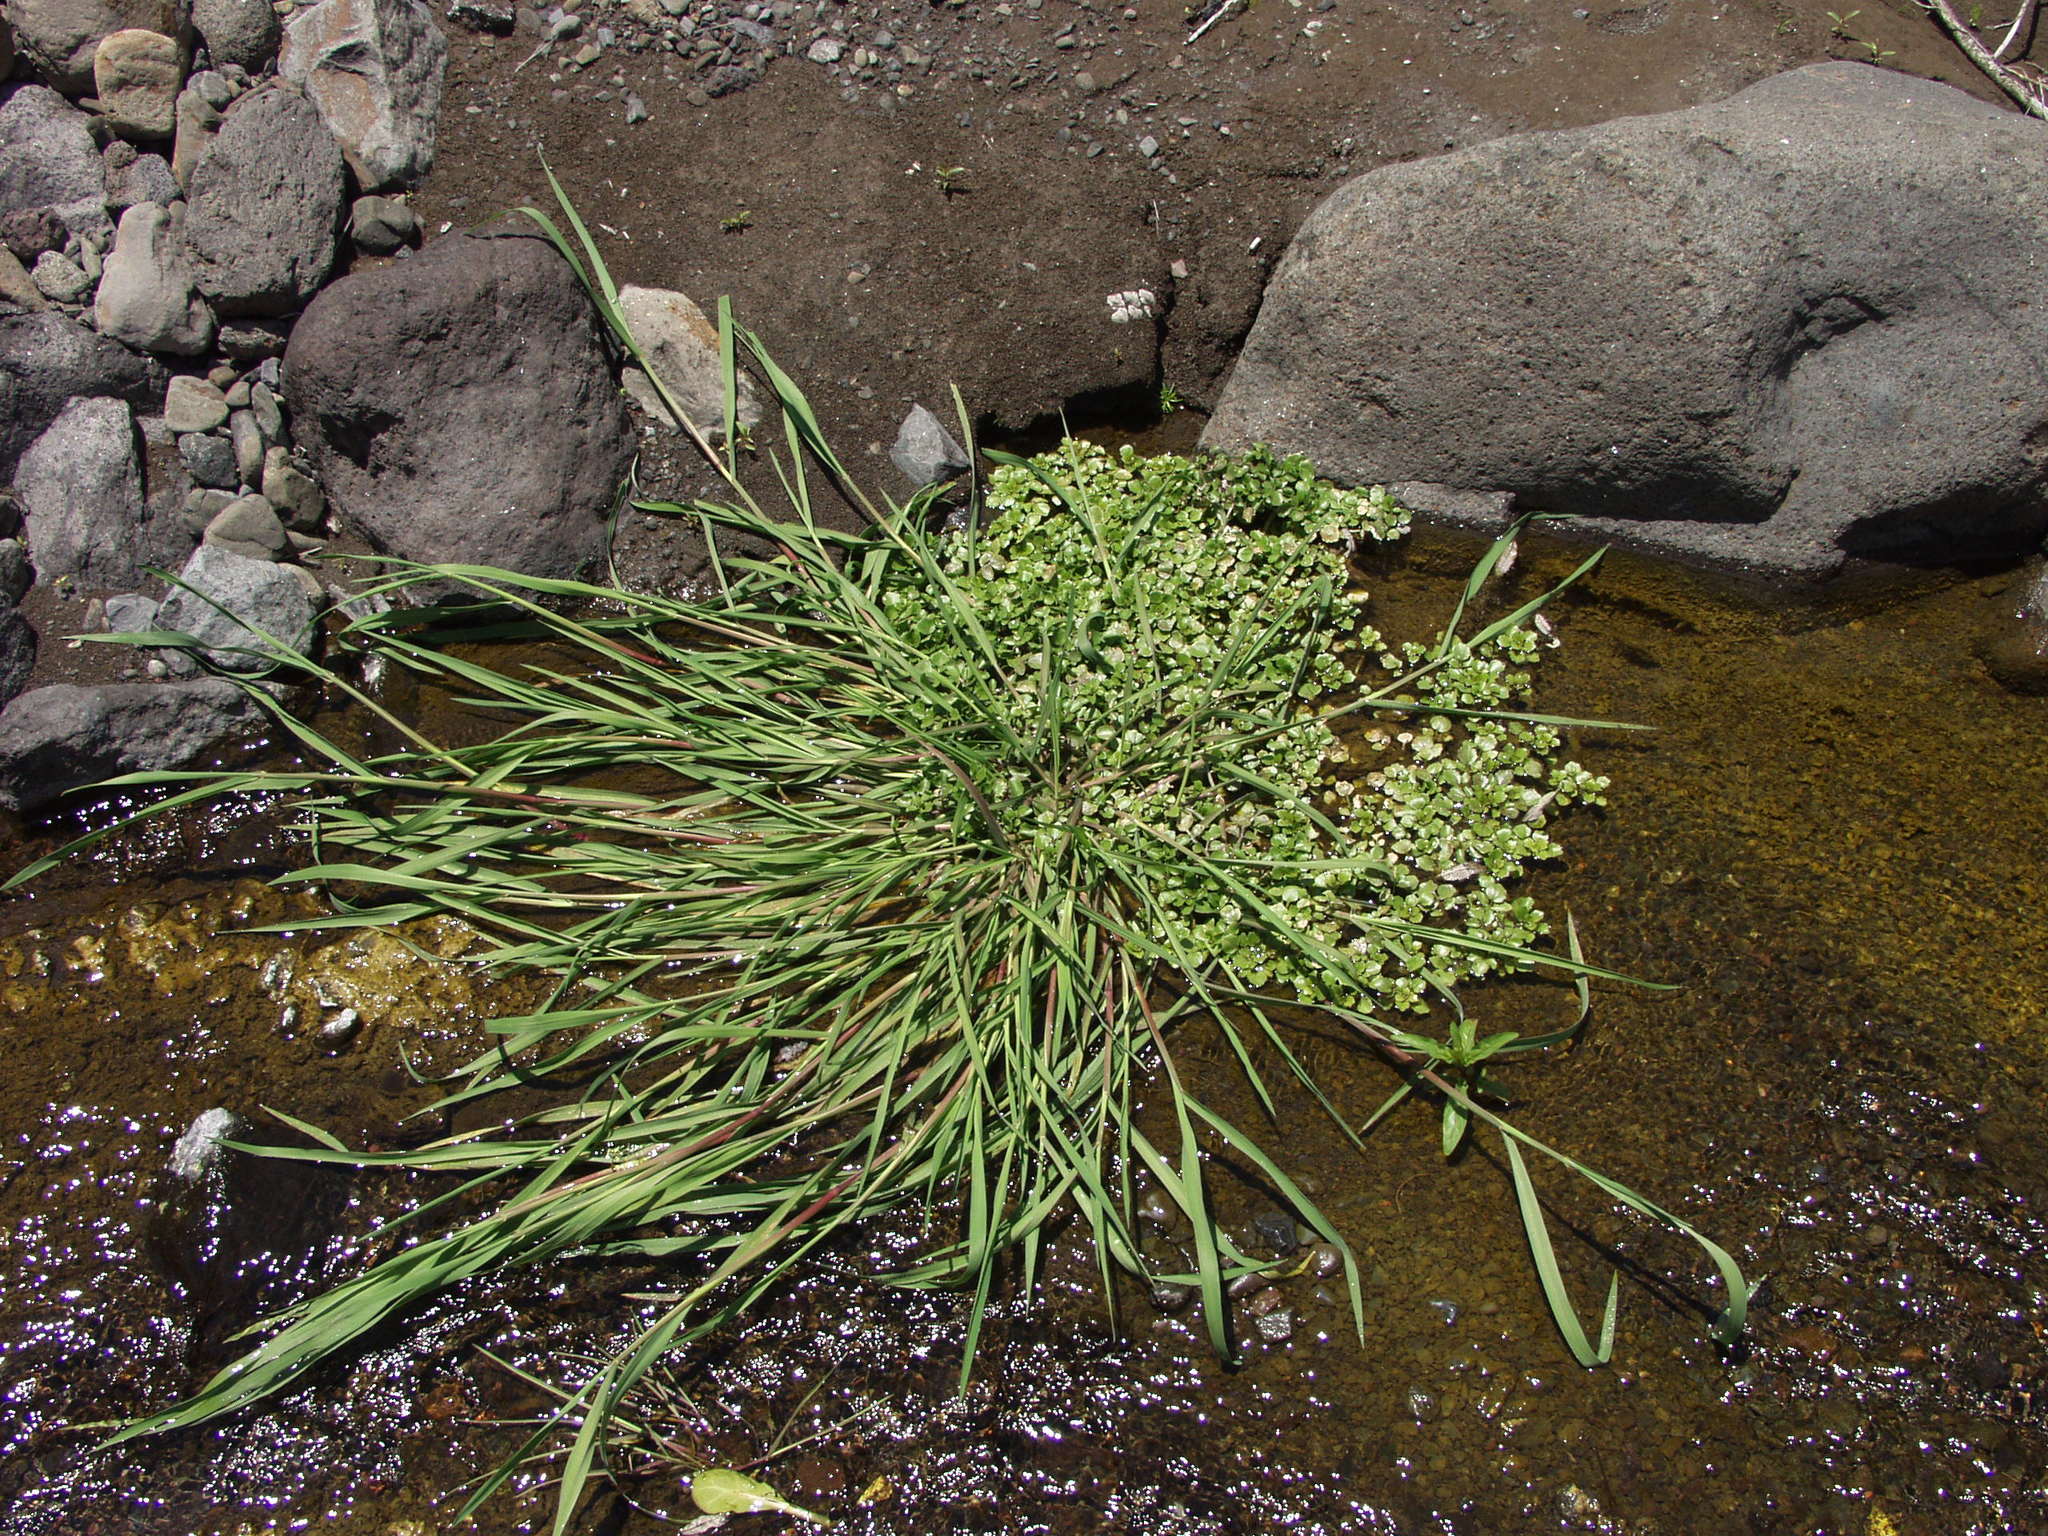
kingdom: Plantae
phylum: Tracheophyta
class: Magnoliopsida
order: Brassicales
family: Brassicaceae
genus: Nasturtium
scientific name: Nasturtium officinale
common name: Watercress
